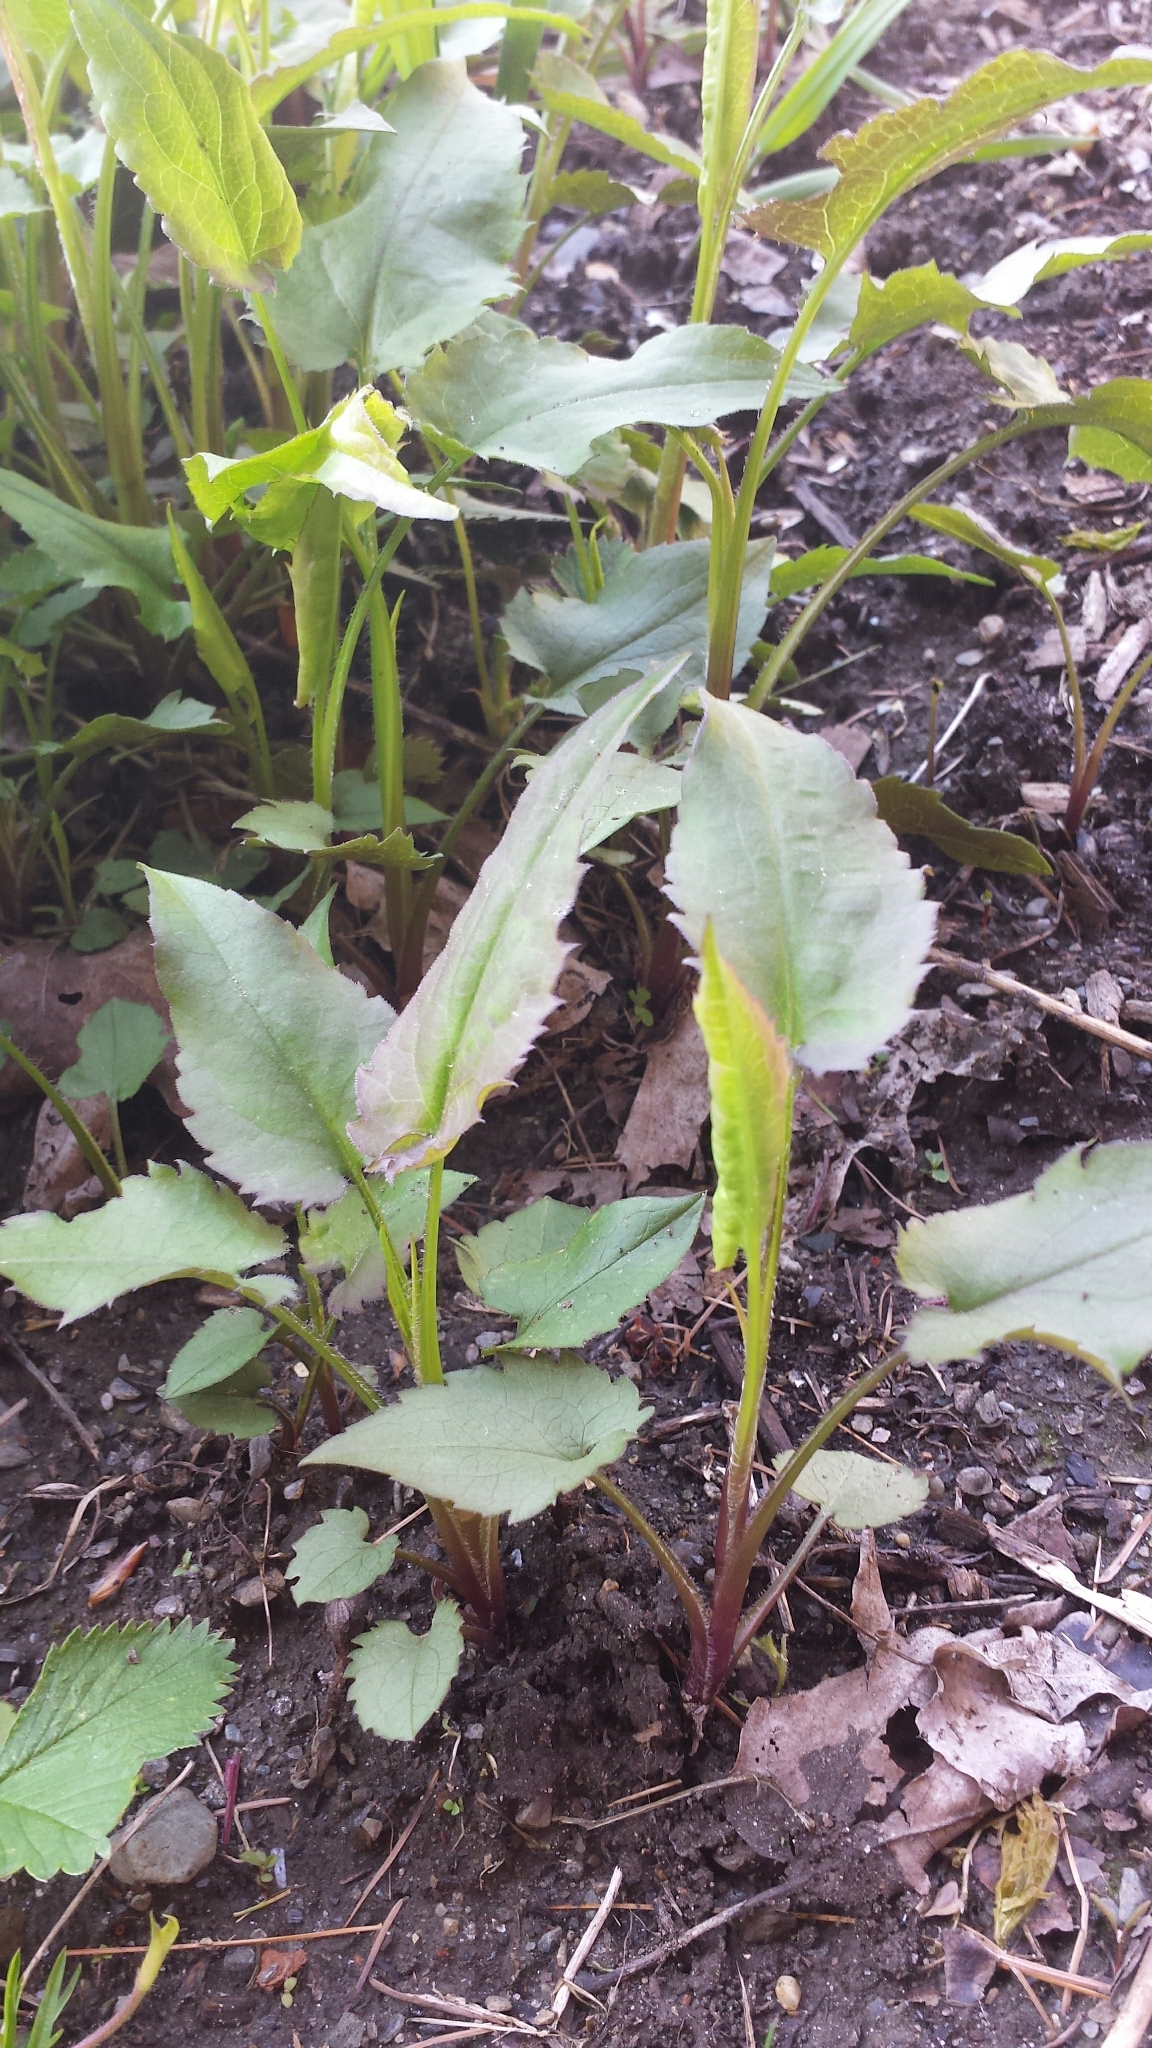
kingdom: Plantae
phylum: Tracheophyta
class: Magnoliopsida
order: Asterales
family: Asteraceae
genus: Symphyotrichum
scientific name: Symphyotrichum cordifolium
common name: Beeweed
